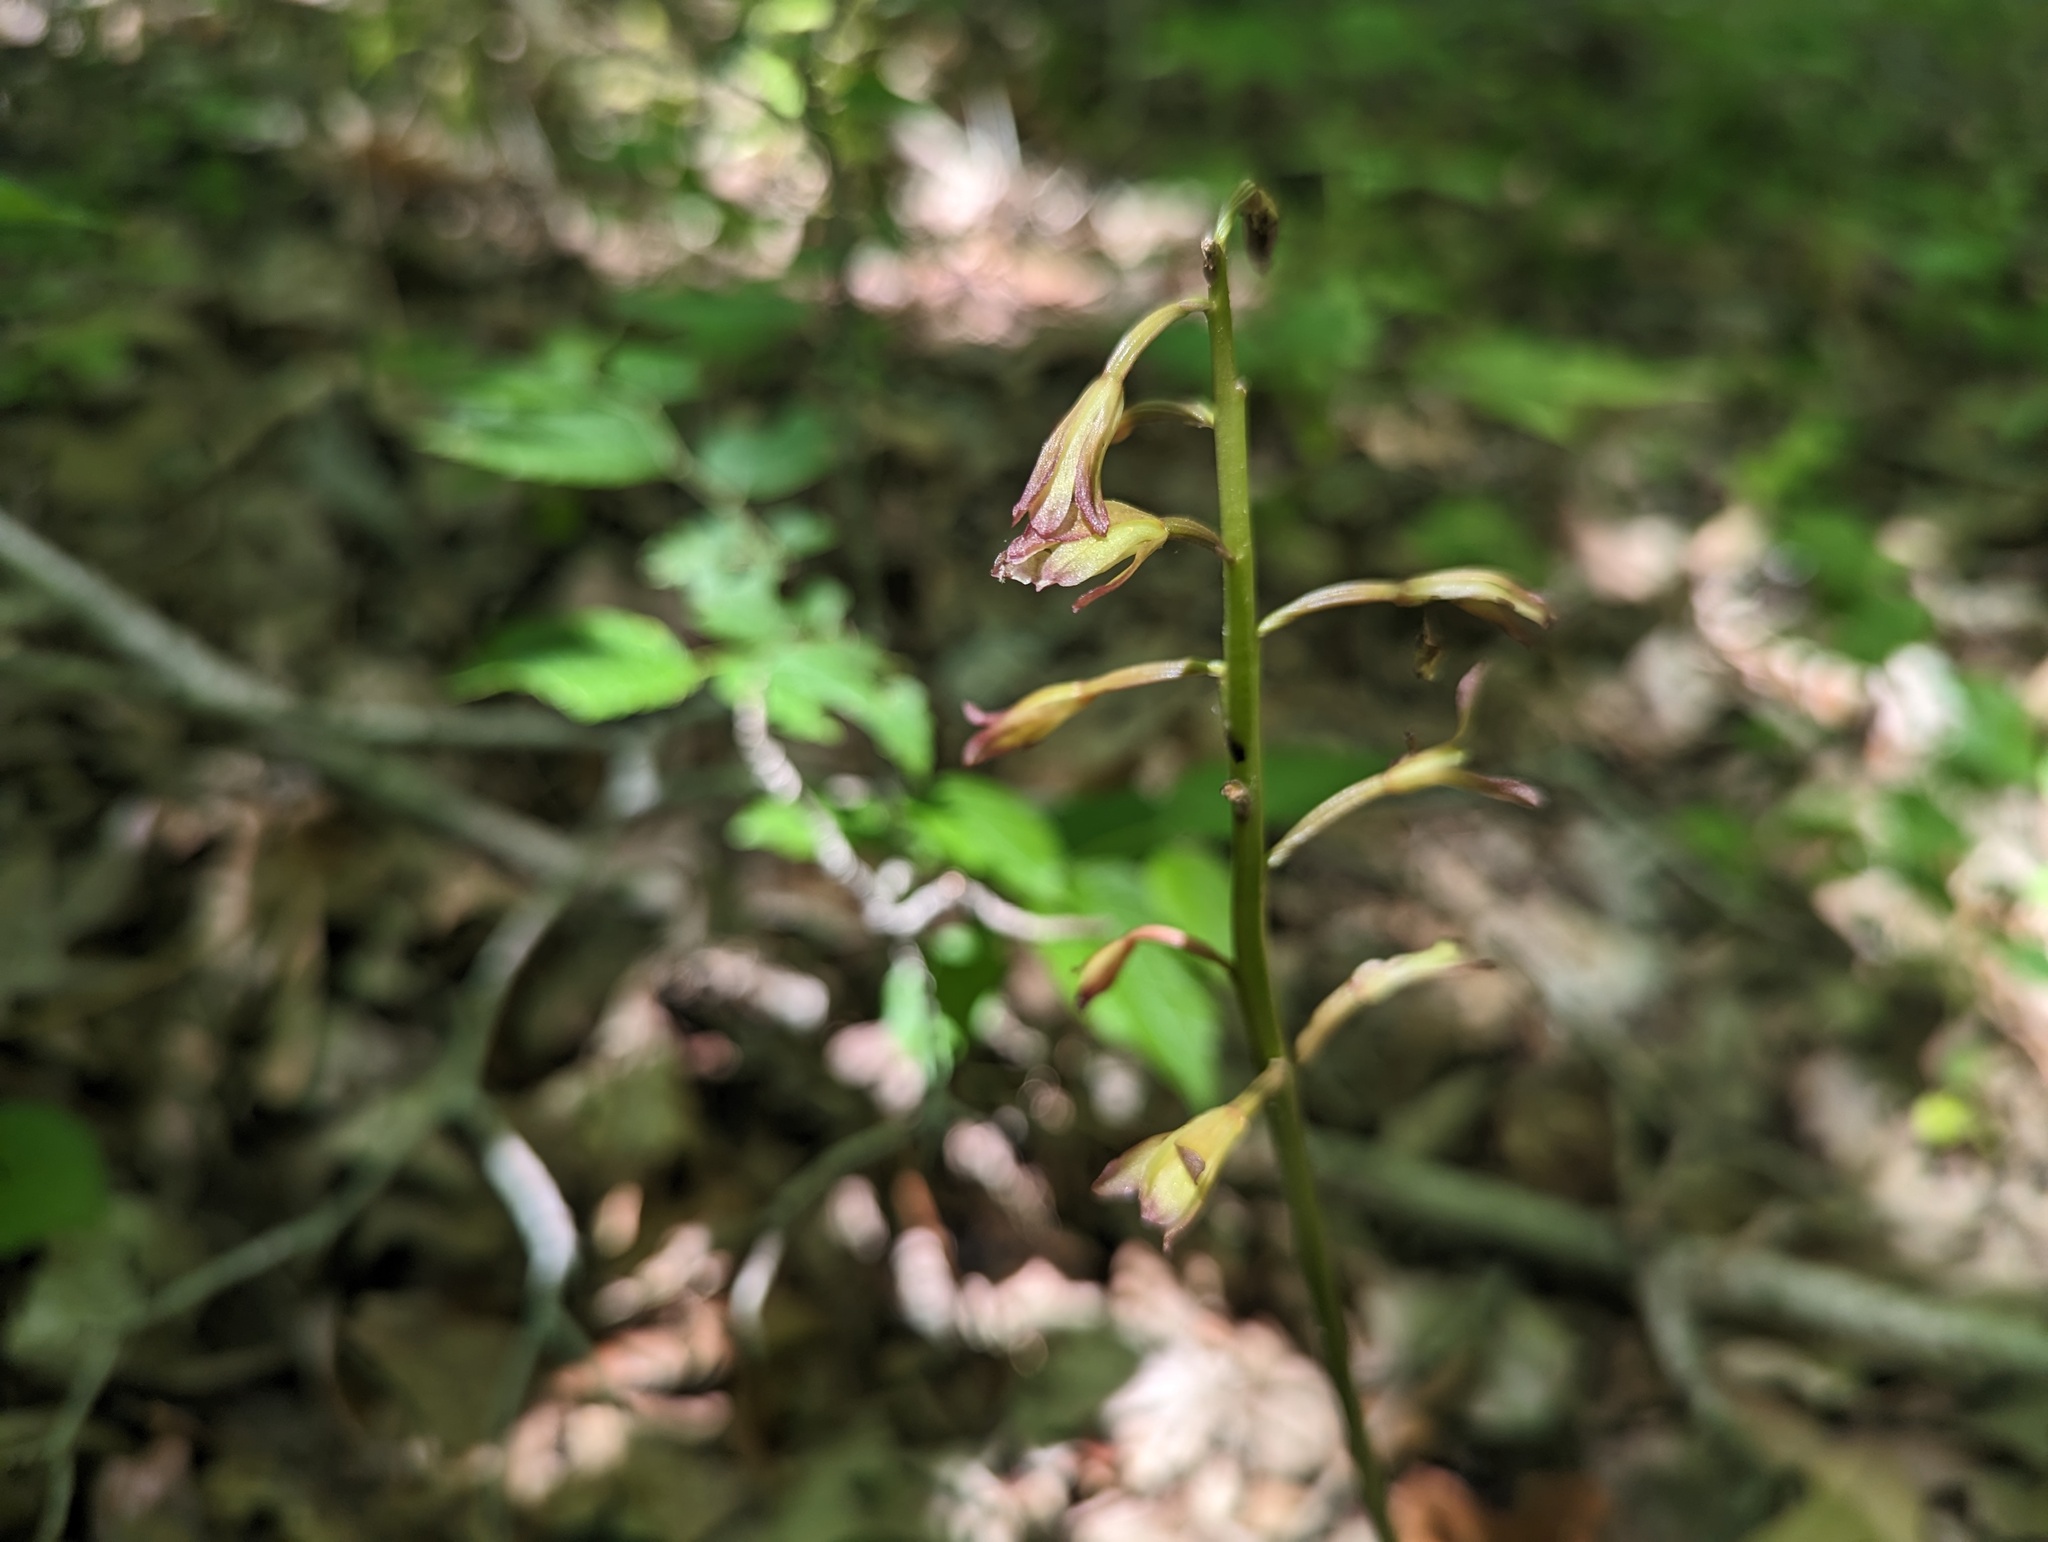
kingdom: Plantae
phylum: Tracheophyta
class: Liliopsida
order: Asparagales
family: Orchidaceae
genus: Aplectrum
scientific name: Aplectrum hyemale
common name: Adam-and-eve
